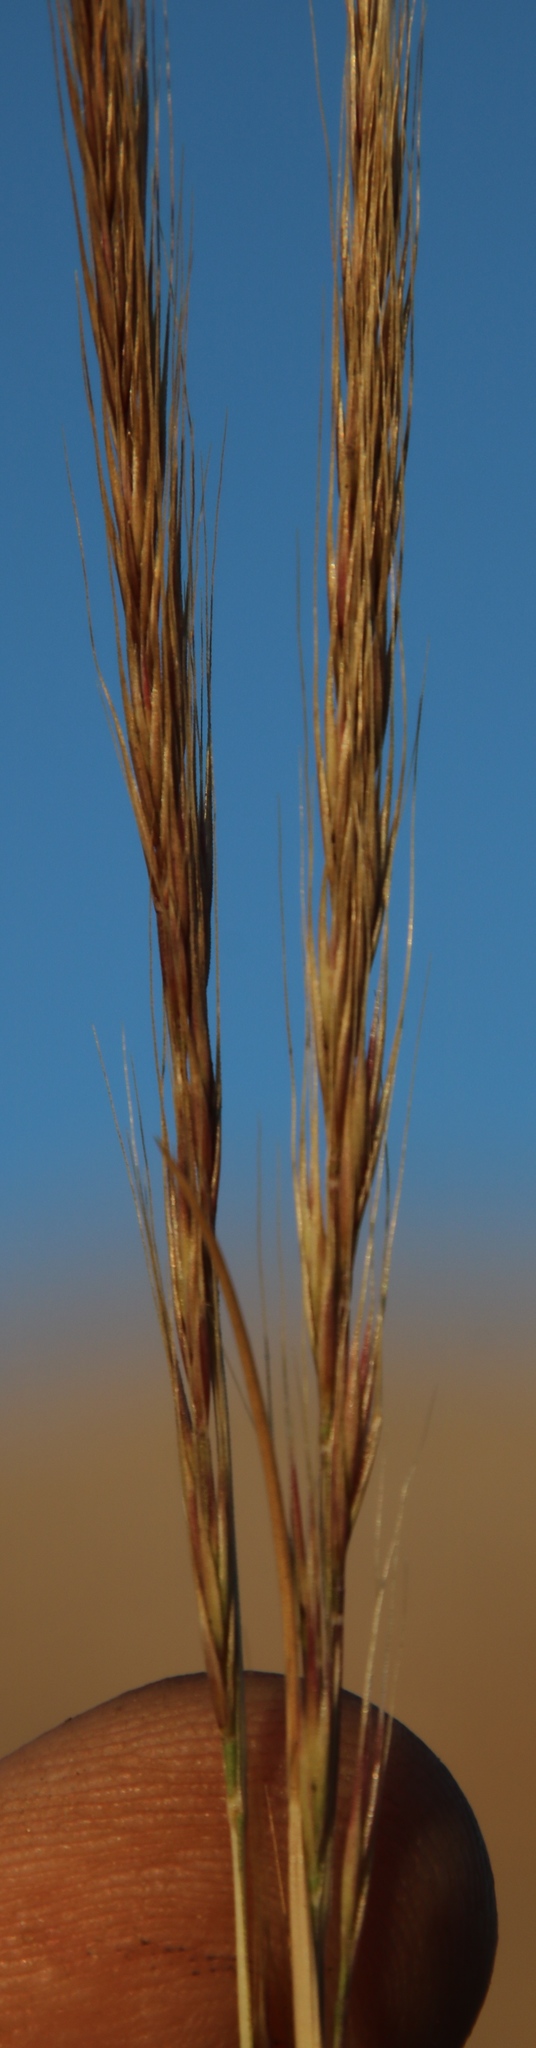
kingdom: Plantae
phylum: Tracheophyta
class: Liliopsida
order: Poales
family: Poaceae
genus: Festuca
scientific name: Festuca myuros
